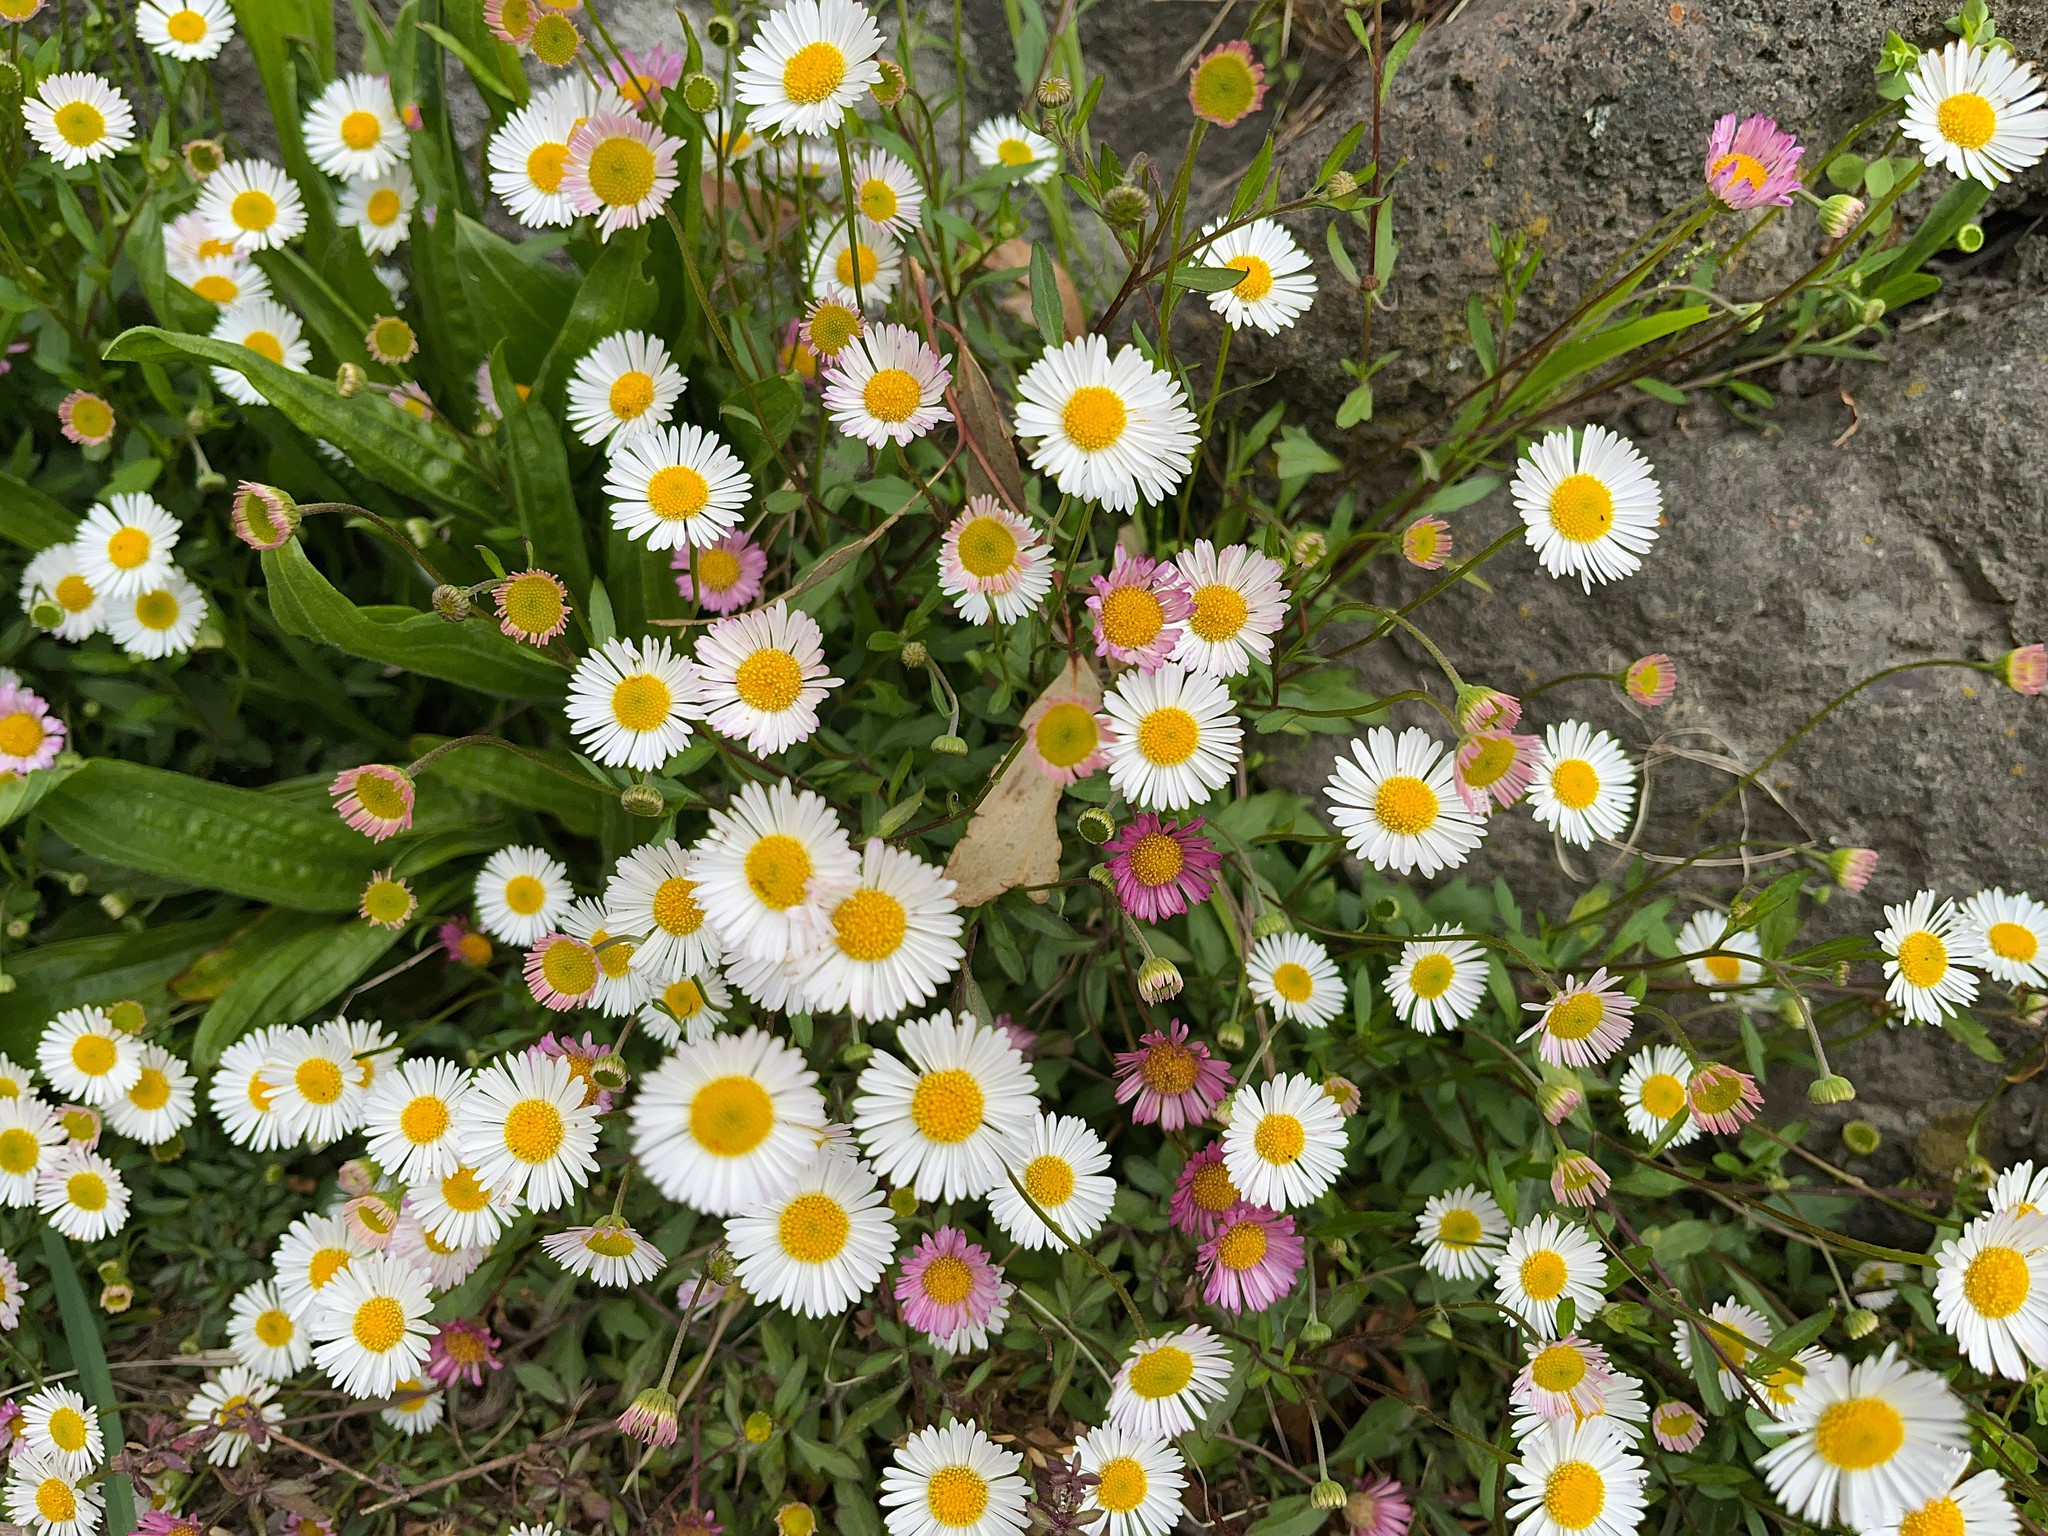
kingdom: Plantae
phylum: Tracheophyta
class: Magnoliopsida
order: Asterales
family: Asteraceae
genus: Erigeron
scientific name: Erigeron karvinskianus
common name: Mexican fleabane
